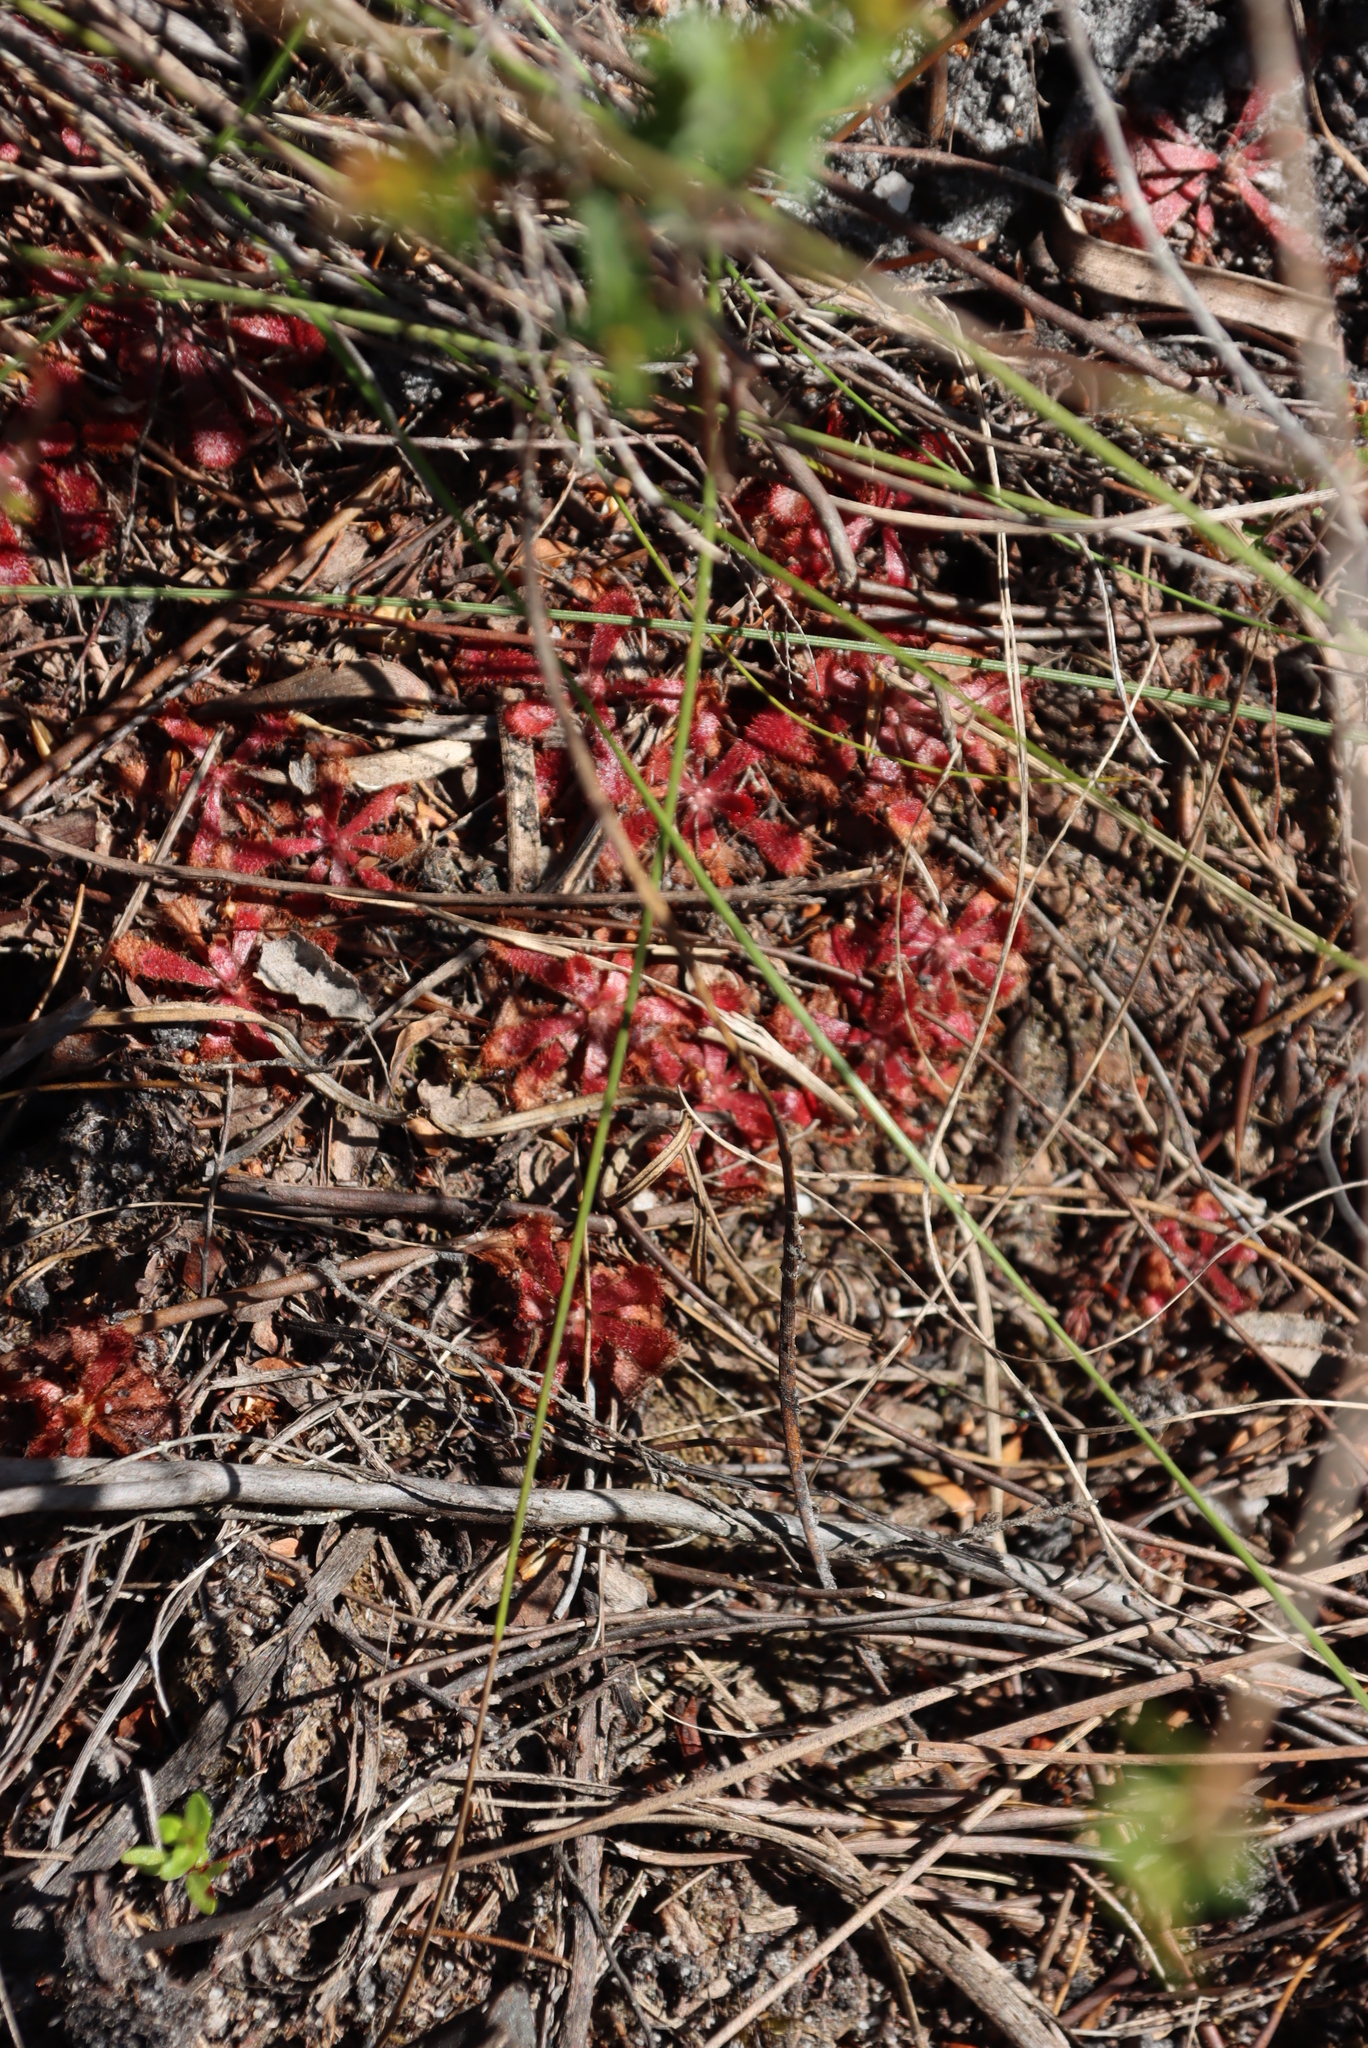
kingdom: Plantae
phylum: Tracheophyta
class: Magnoliopsida
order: Caryophyllales
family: Droseraceae
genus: Drosera
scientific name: Drosera aliciae
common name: Alice sundew
